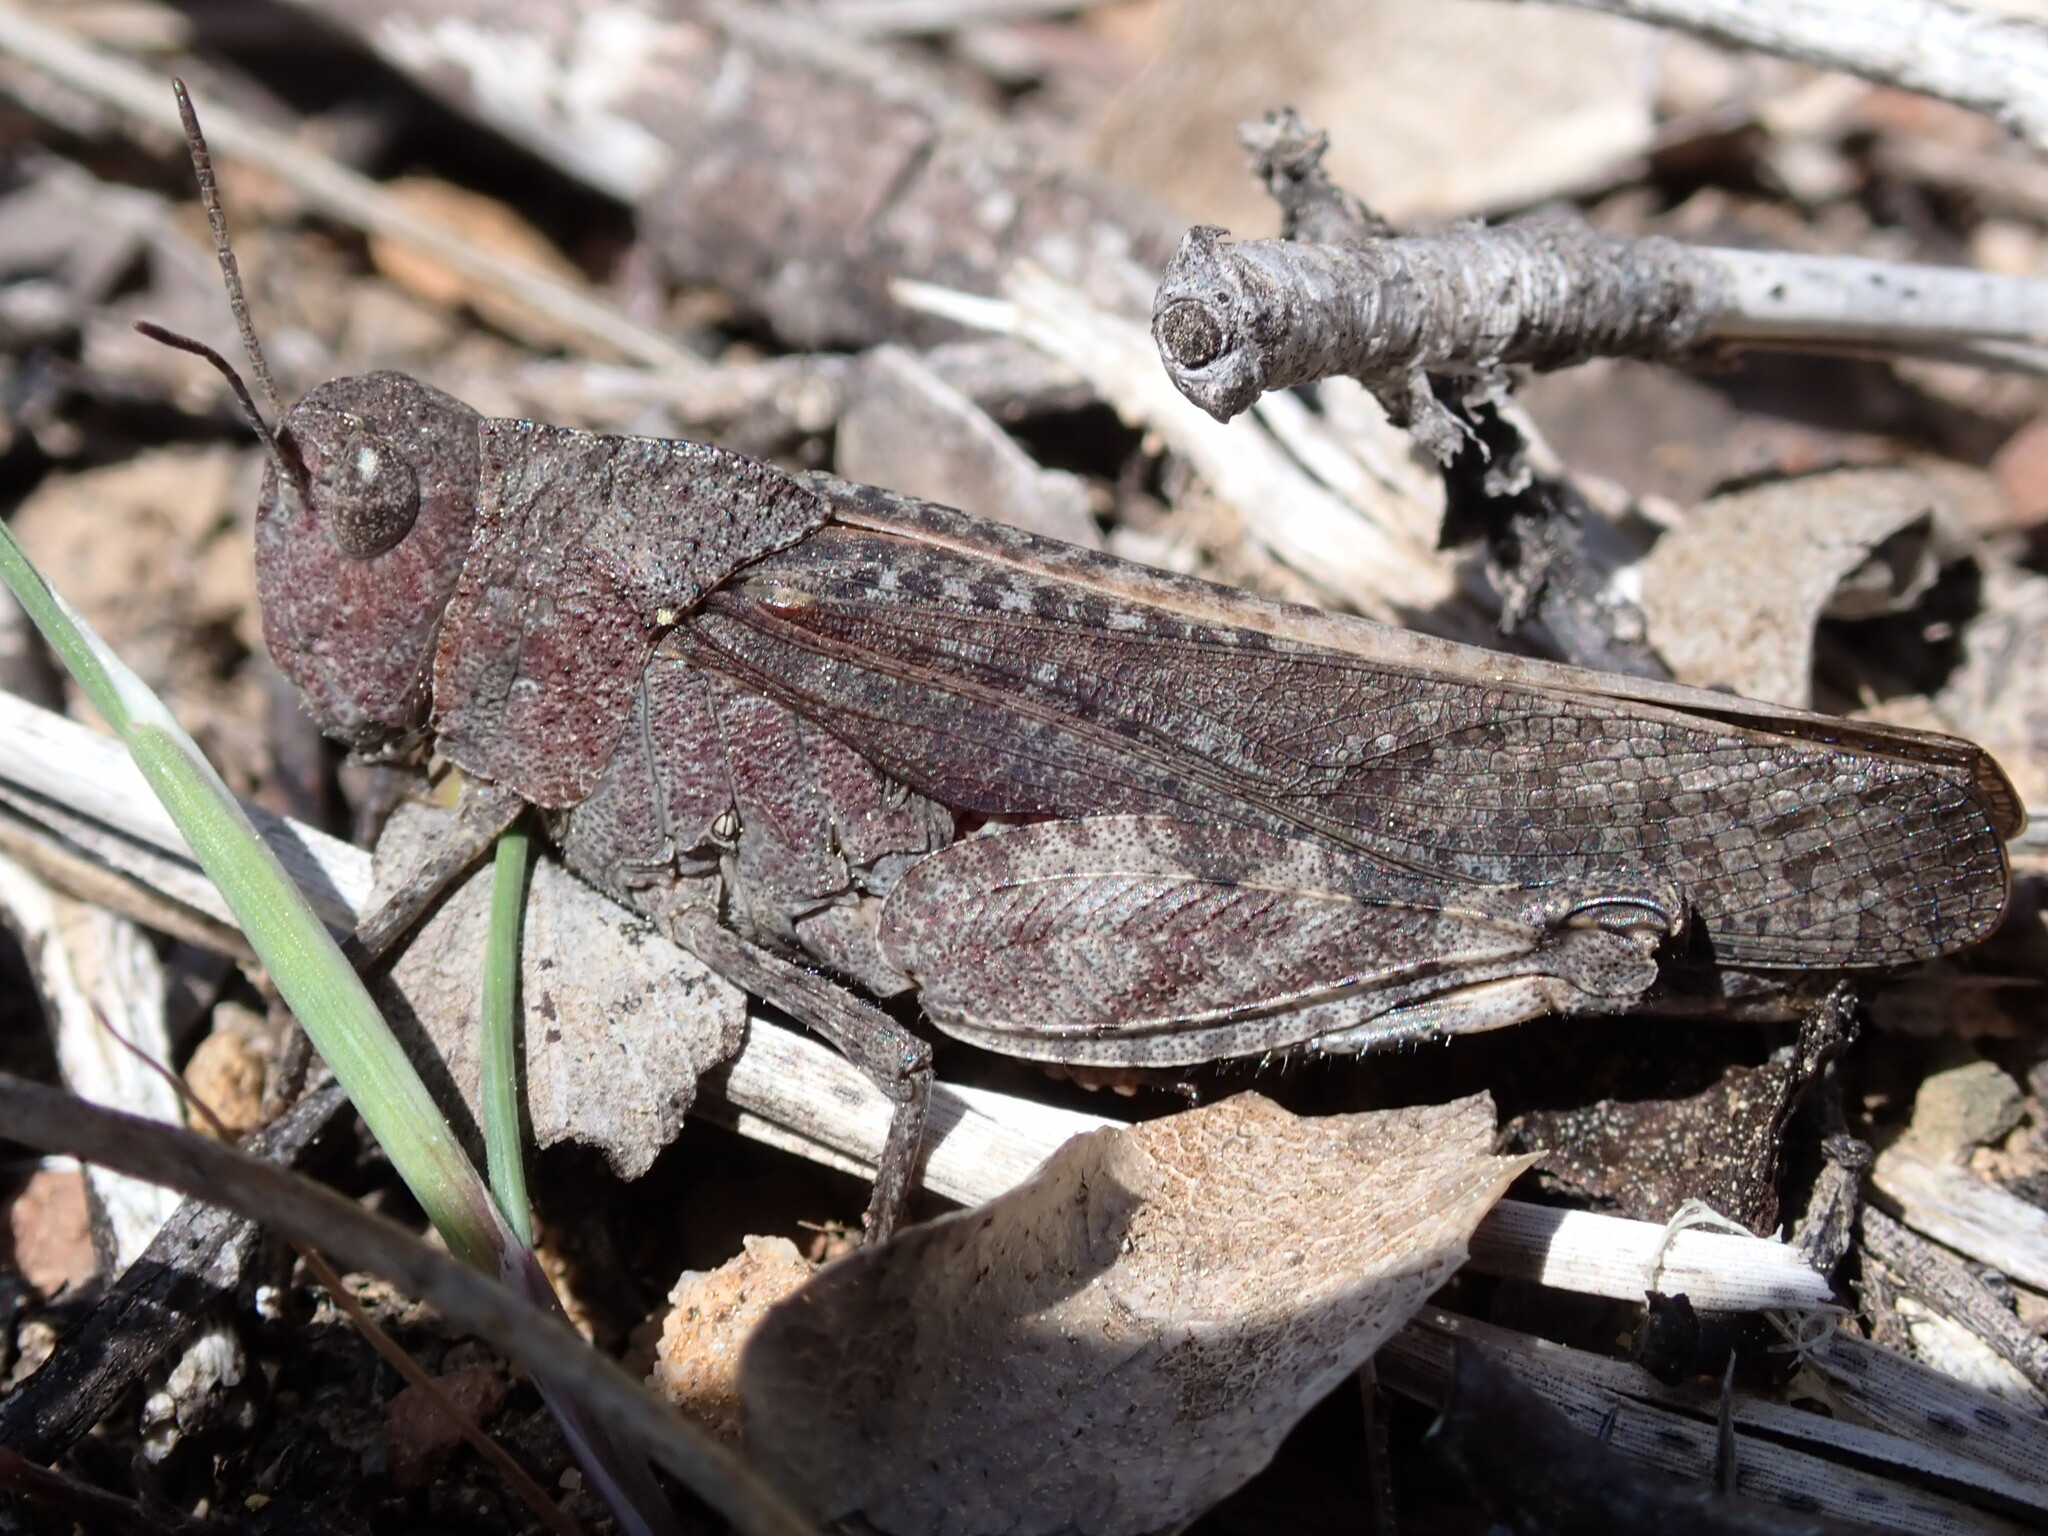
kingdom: Animalia
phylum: Arthropoda
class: Insecta
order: Orthoptera
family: Acrididae
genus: Arphia
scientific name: Arphia behrensi
